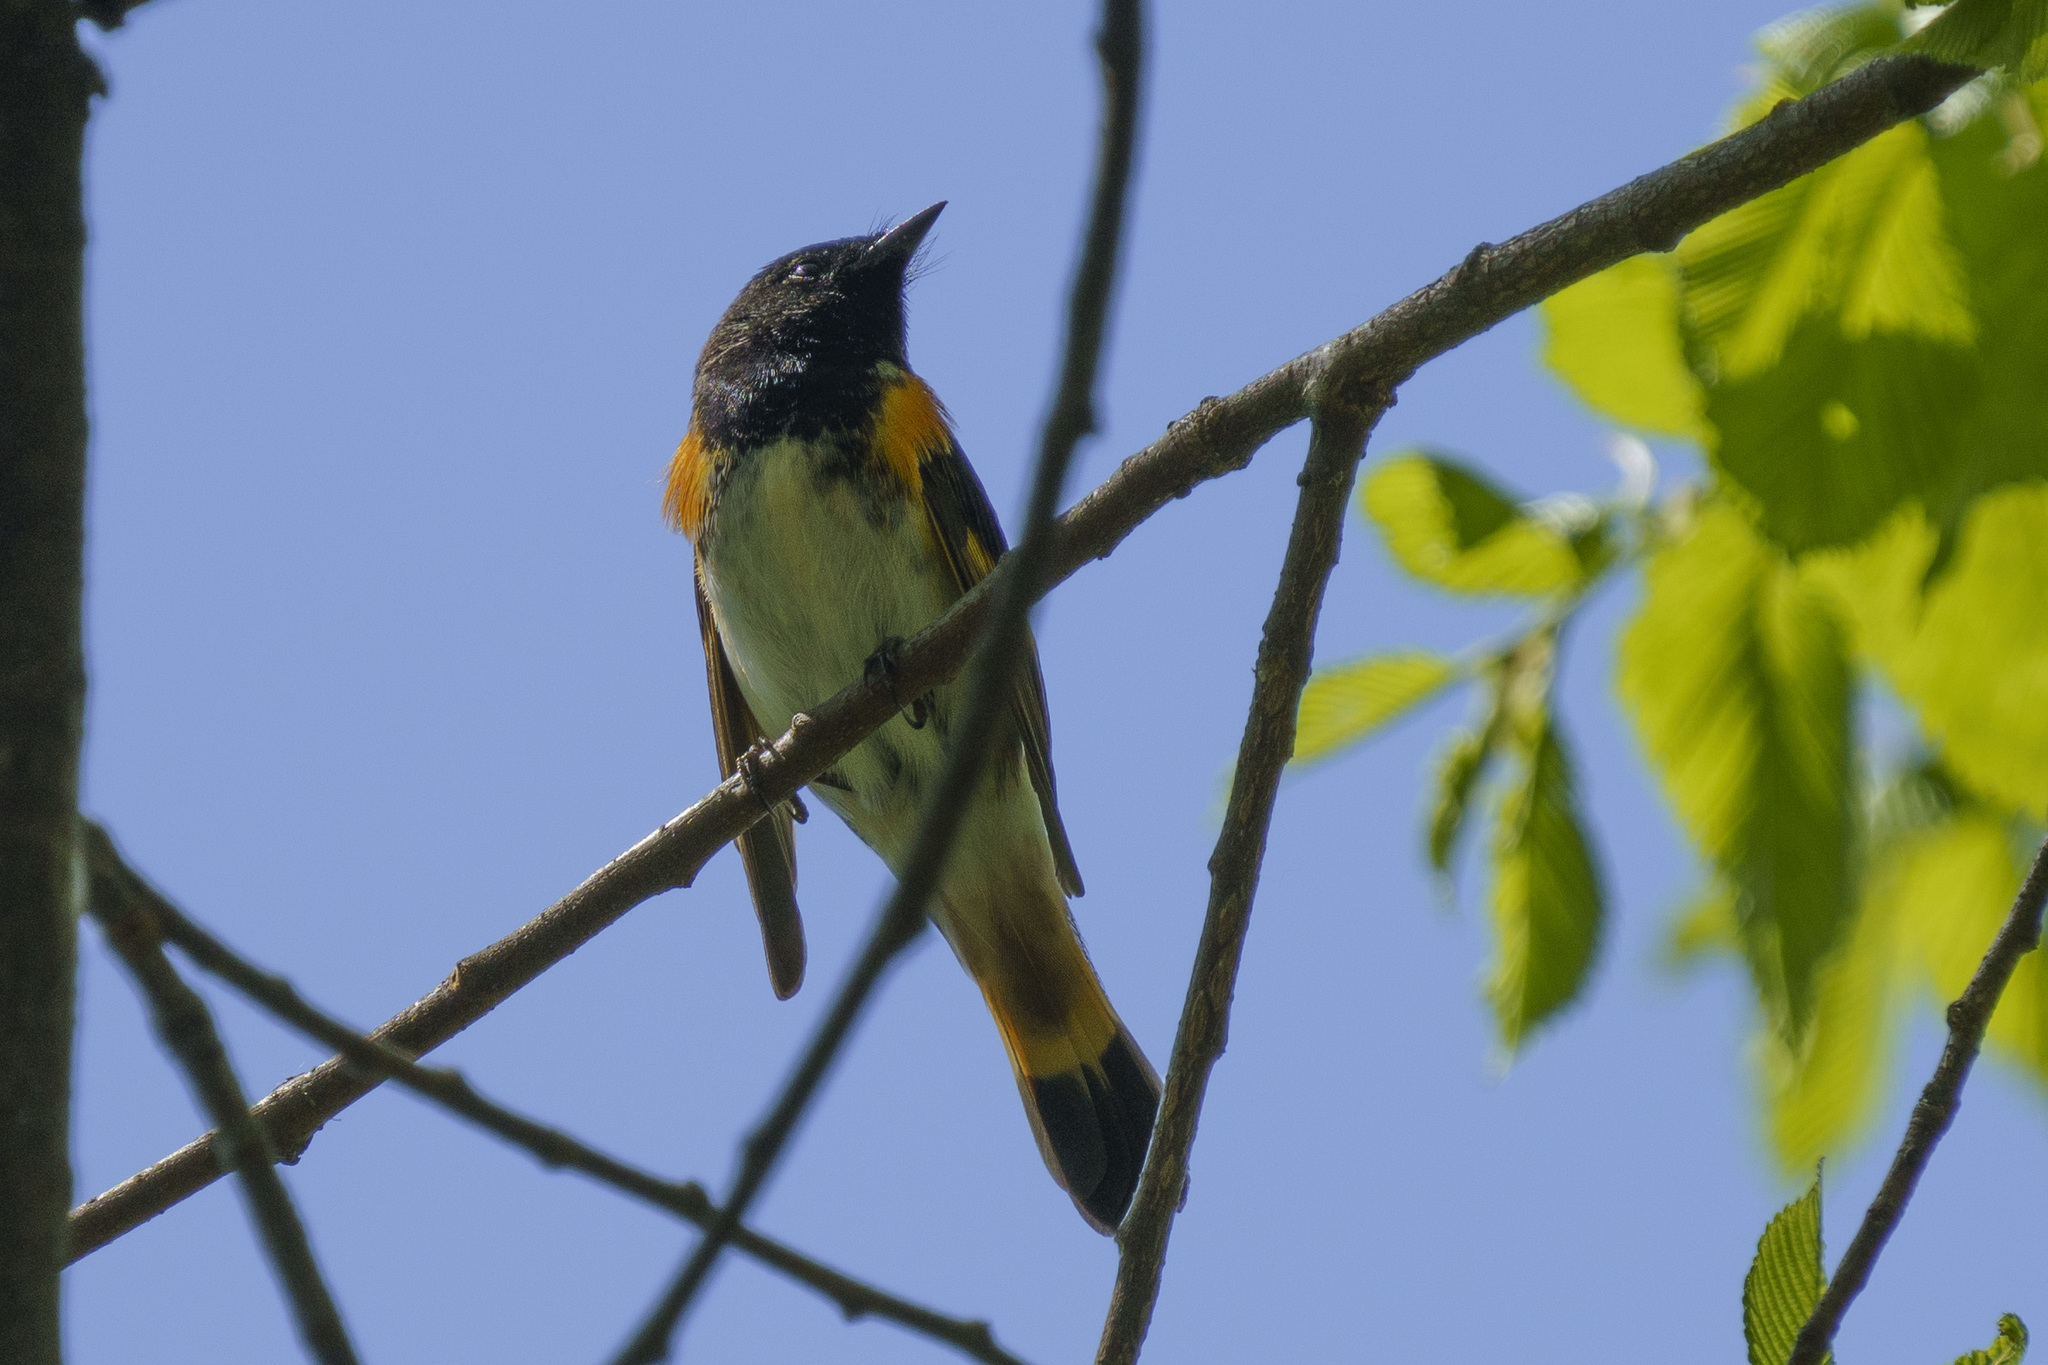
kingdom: Animalia
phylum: Chordata
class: Aves
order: Passeriformes
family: Parulidae
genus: Setophaga
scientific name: Setophaga ruticilla
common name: American redstart
